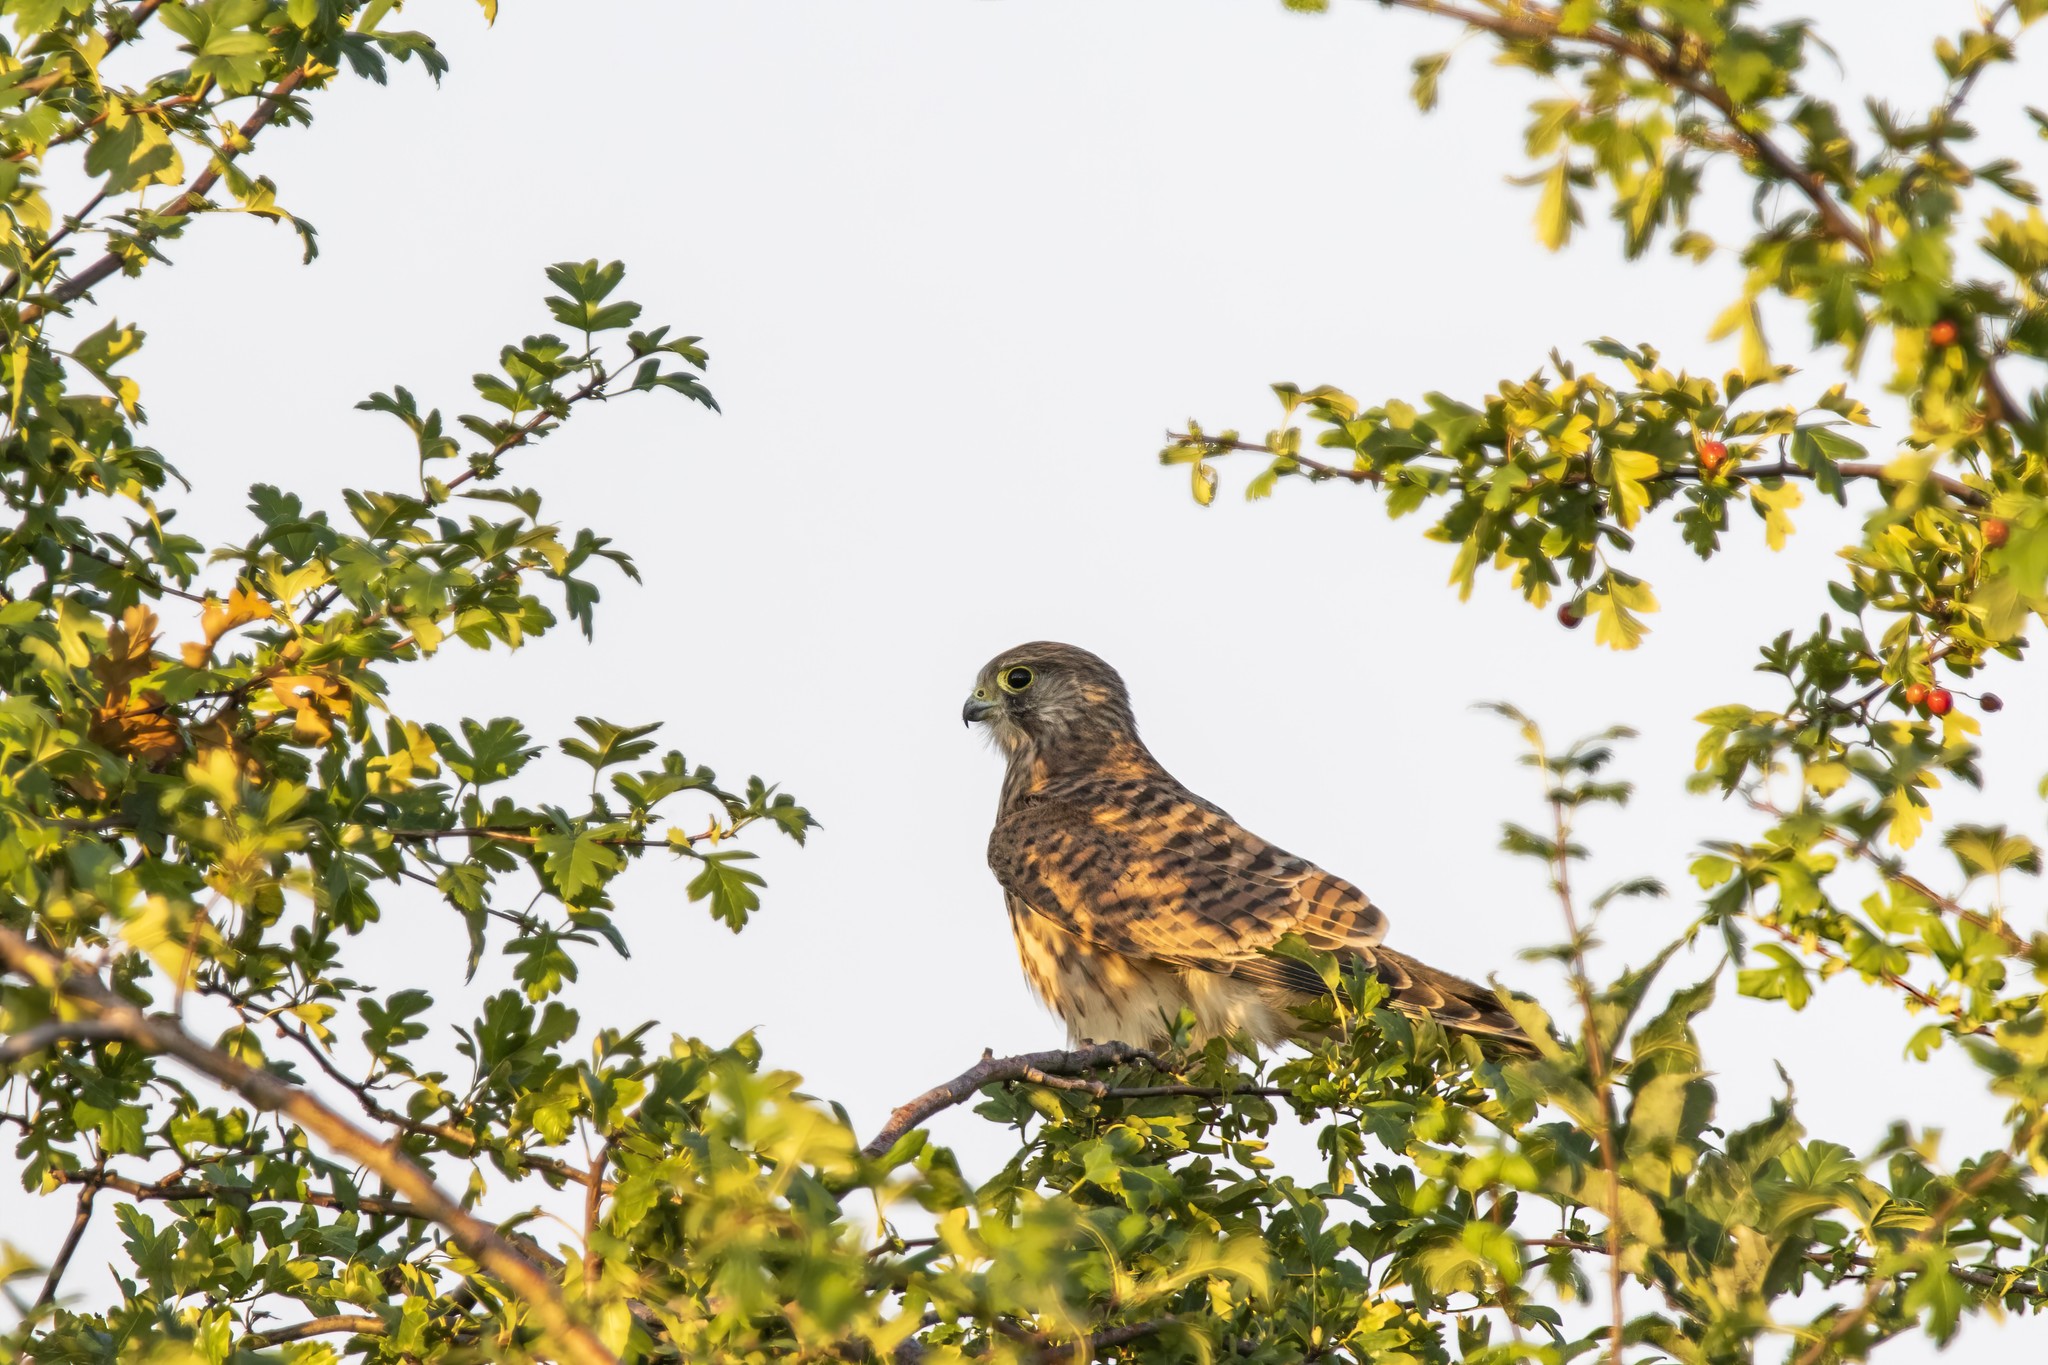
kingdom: Animalia
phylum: Chordata
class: Aves
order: Falconiformes
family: Falconidae
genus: Falco
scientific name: Falco tinnunculus
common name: Common kestrel
